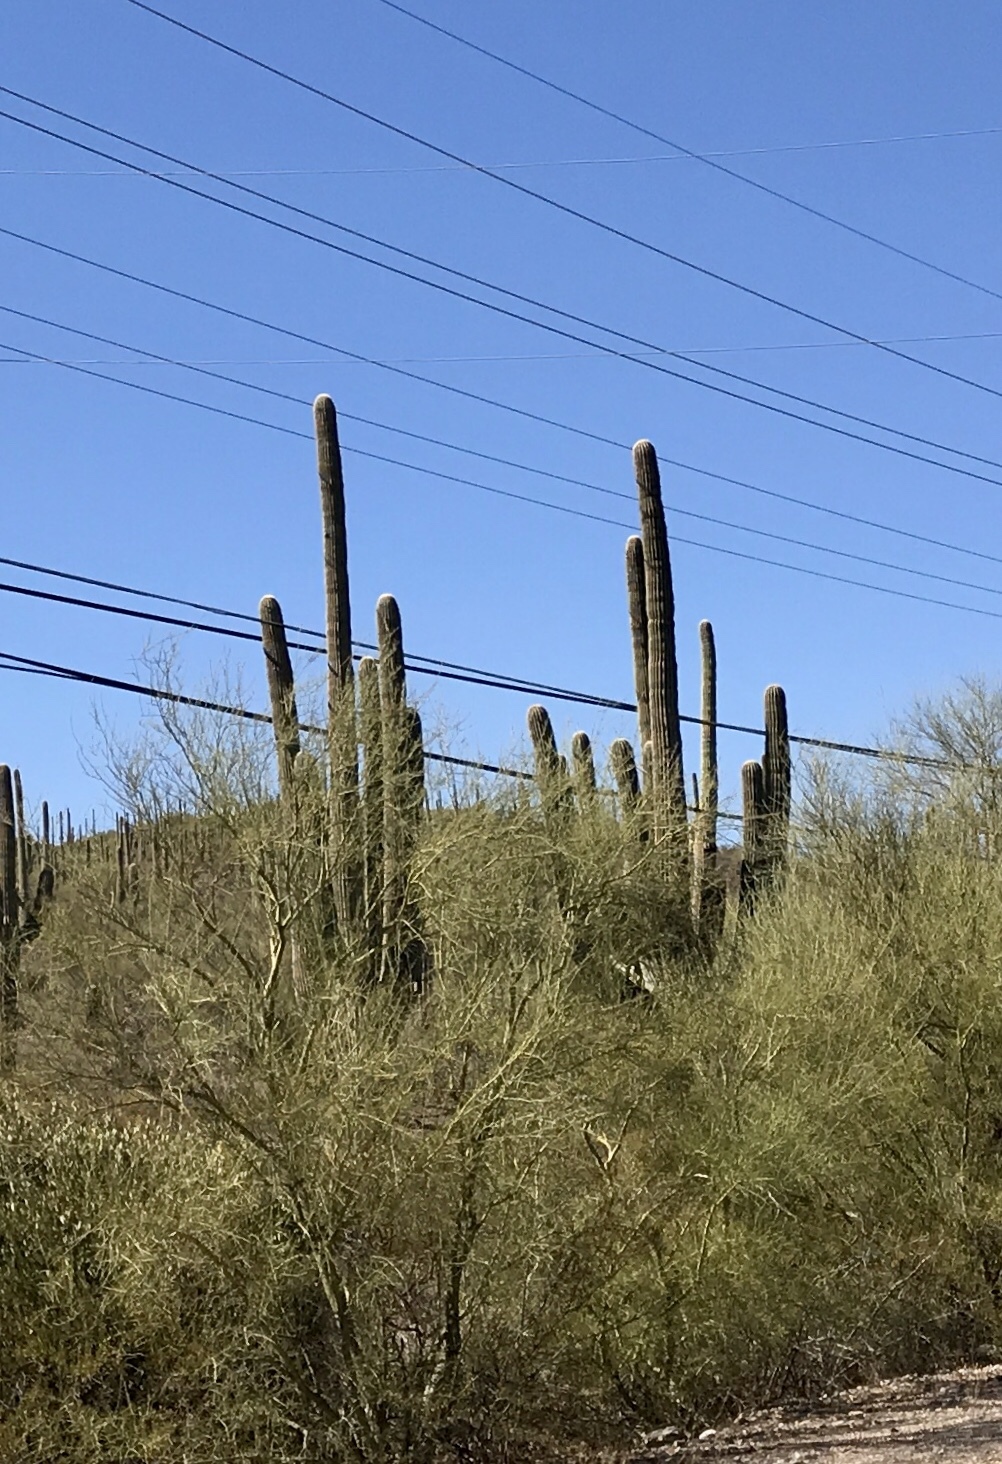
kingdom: Plantae
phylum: Tracheophyta
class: Magnoliopsida
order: Caryophyllales
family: Cactaceae
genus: Carnegiea
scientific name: Carnegiea gigantea
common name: Saguaro
